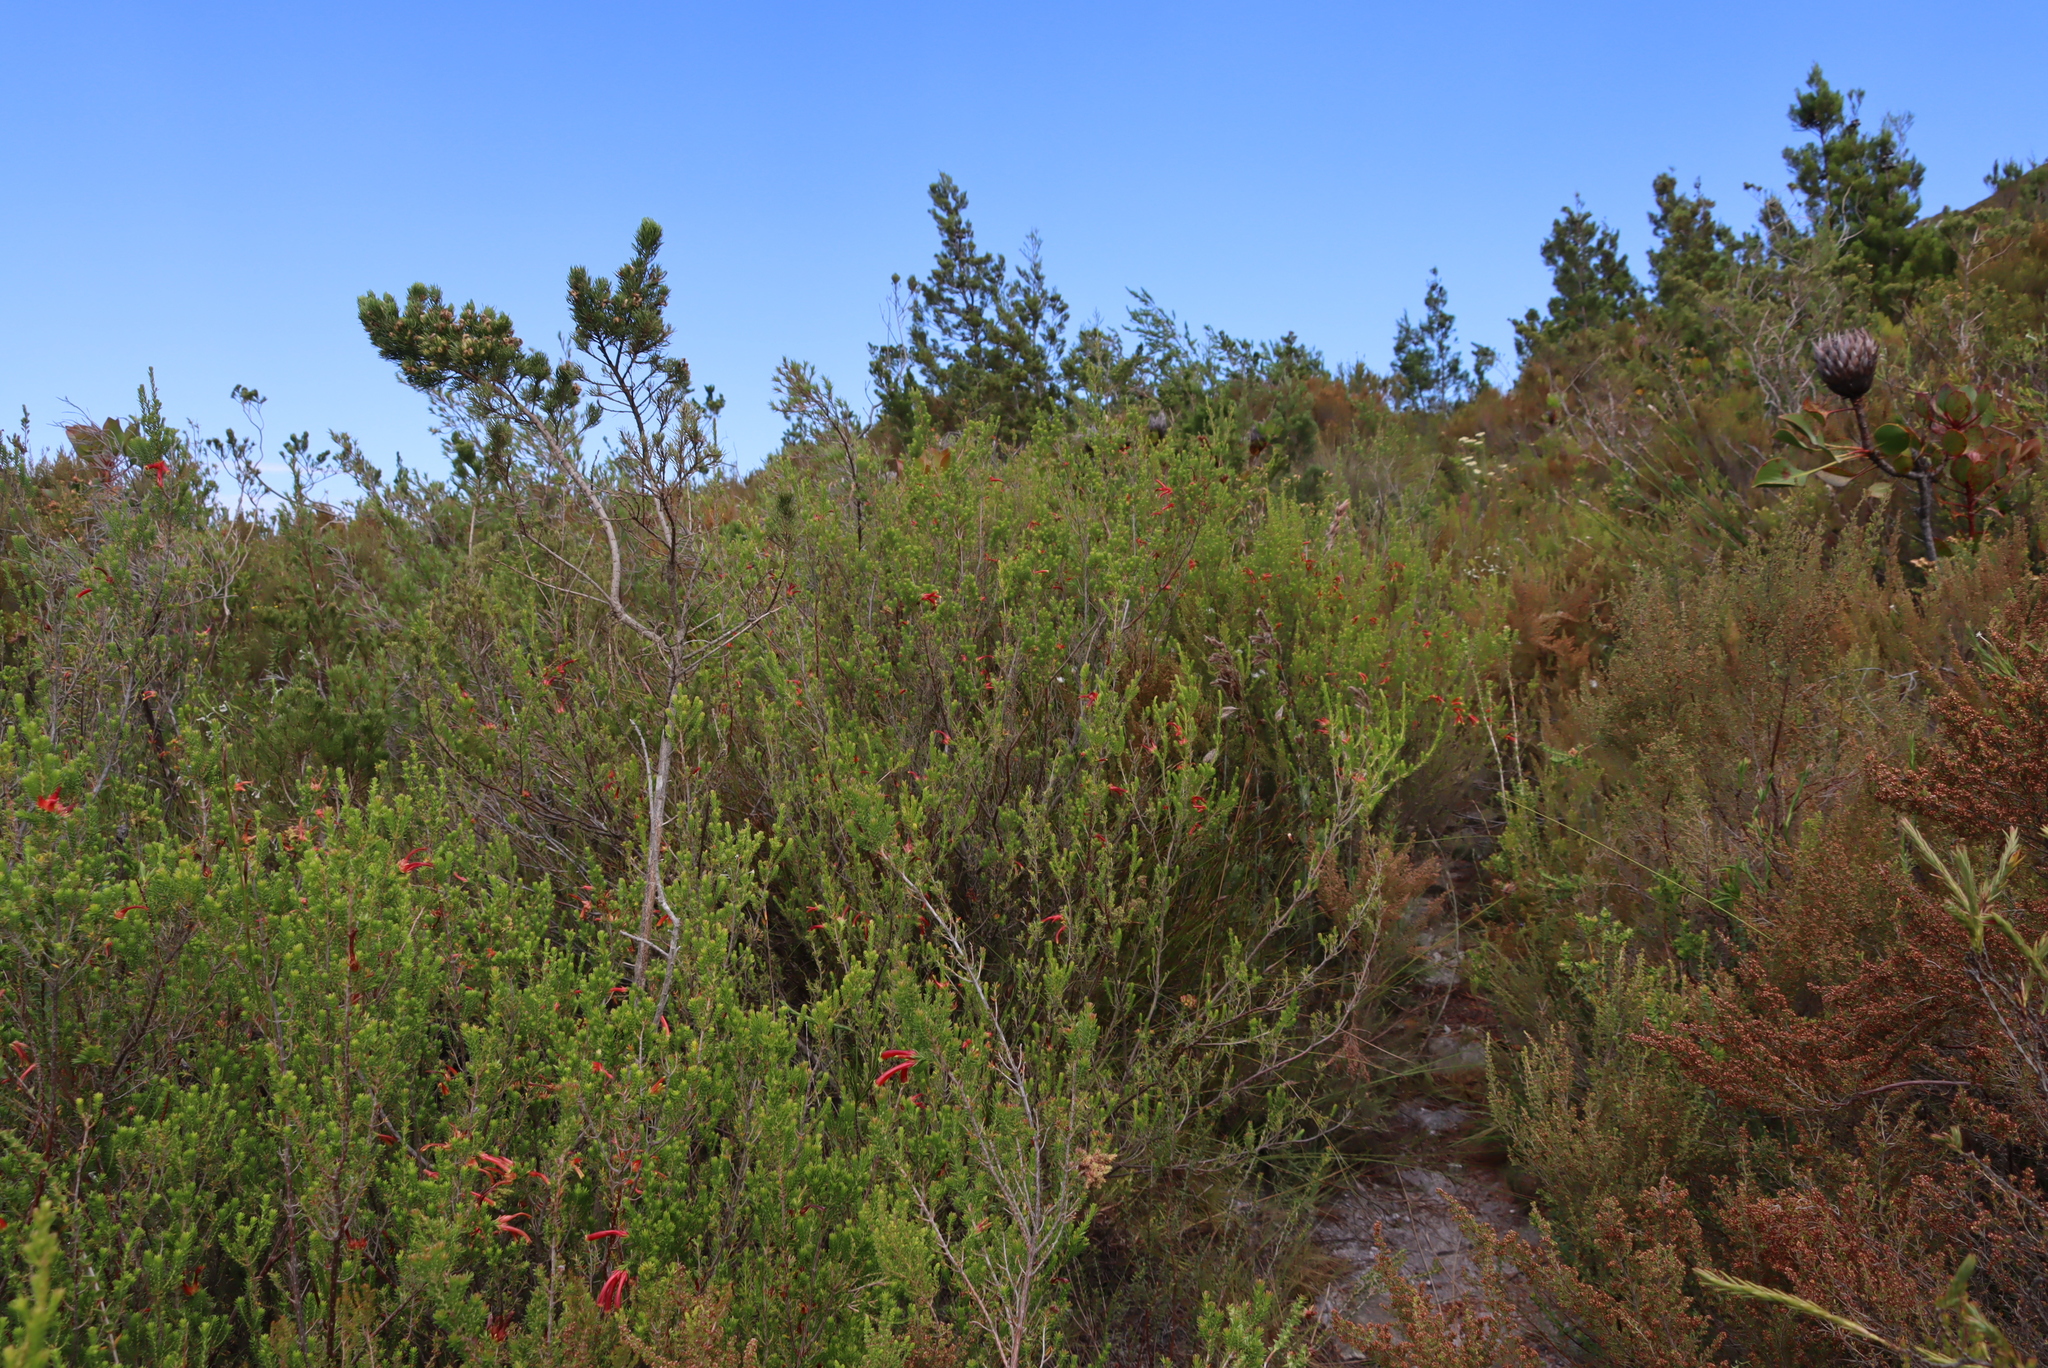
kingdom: Plantae
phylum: Tracheophyta
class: Magnoliopsida
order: Ericales
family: Ericaceae
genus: Erica
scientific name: Erica discolor
